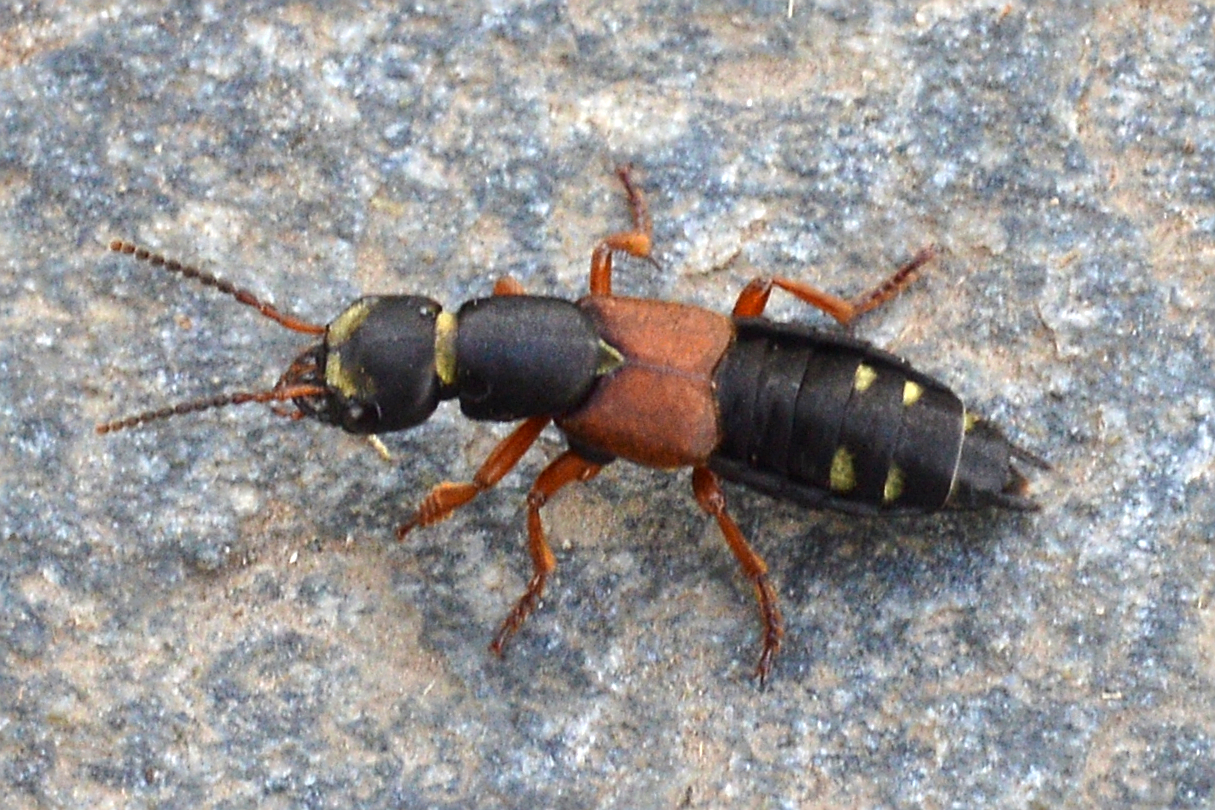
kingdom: Animalia
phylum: Arthropoda
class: Insecta
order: Coleoptera
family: Staphylinidae
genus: Staphylinus
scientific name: Staphylinus erythropterus
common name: Staph beetle
